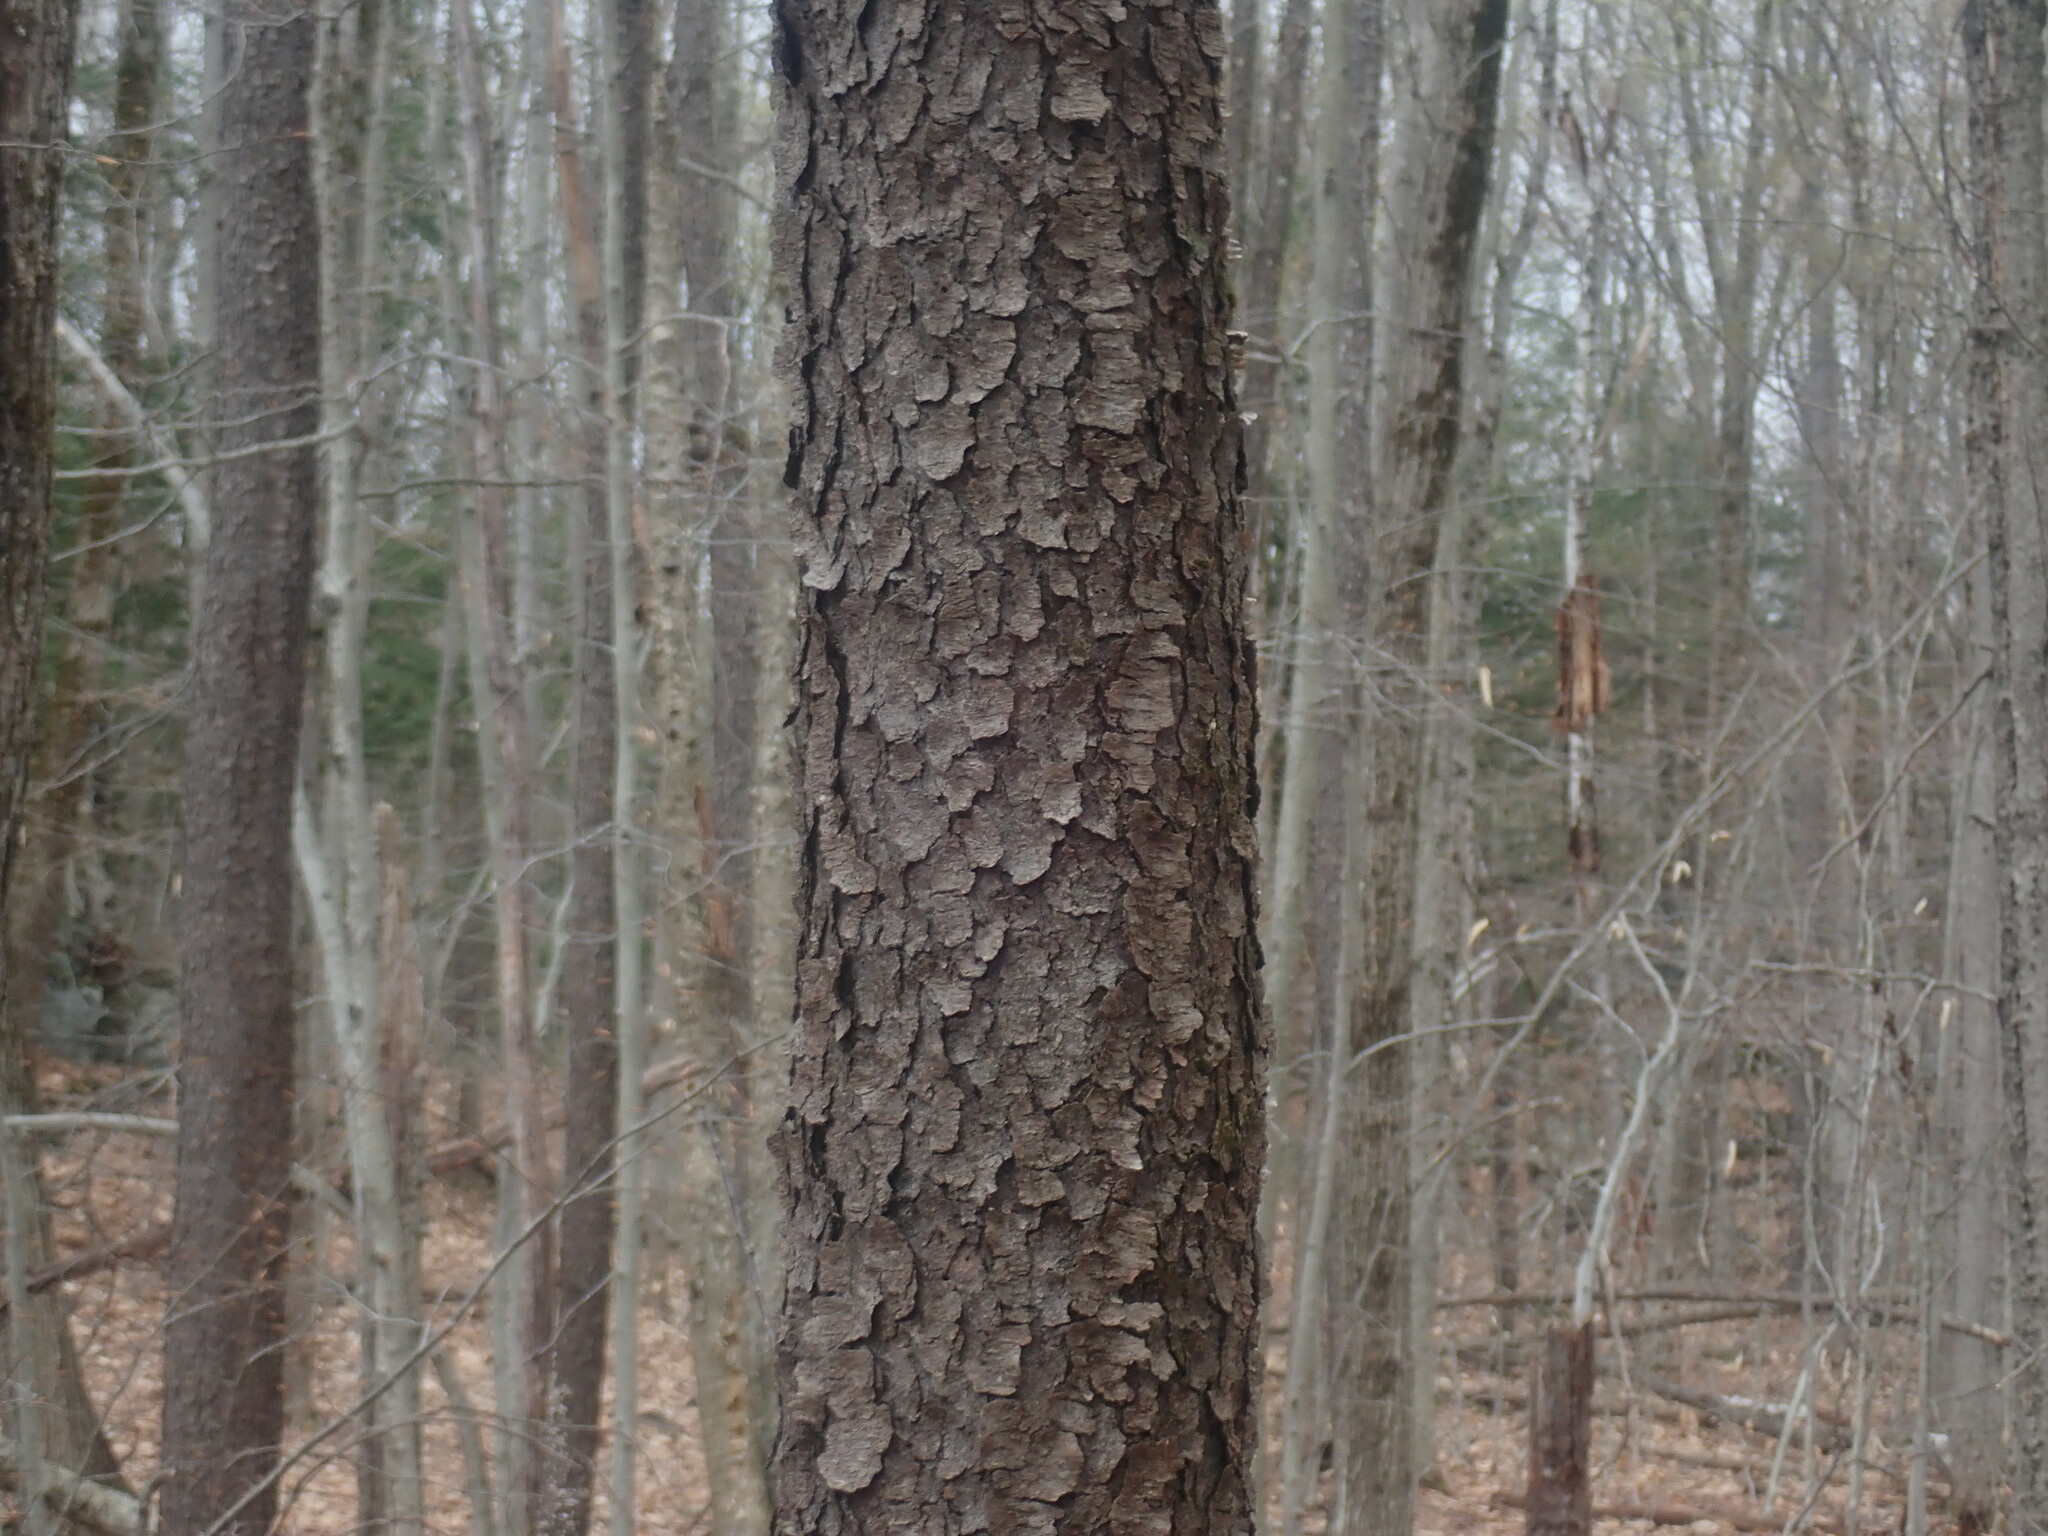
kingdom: Plantae
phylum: Tracheophyta
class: Magnoliopsida
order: Rosales
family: Rosaceae
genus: Prunus
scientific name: Prunus serotina
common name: Black cherry
